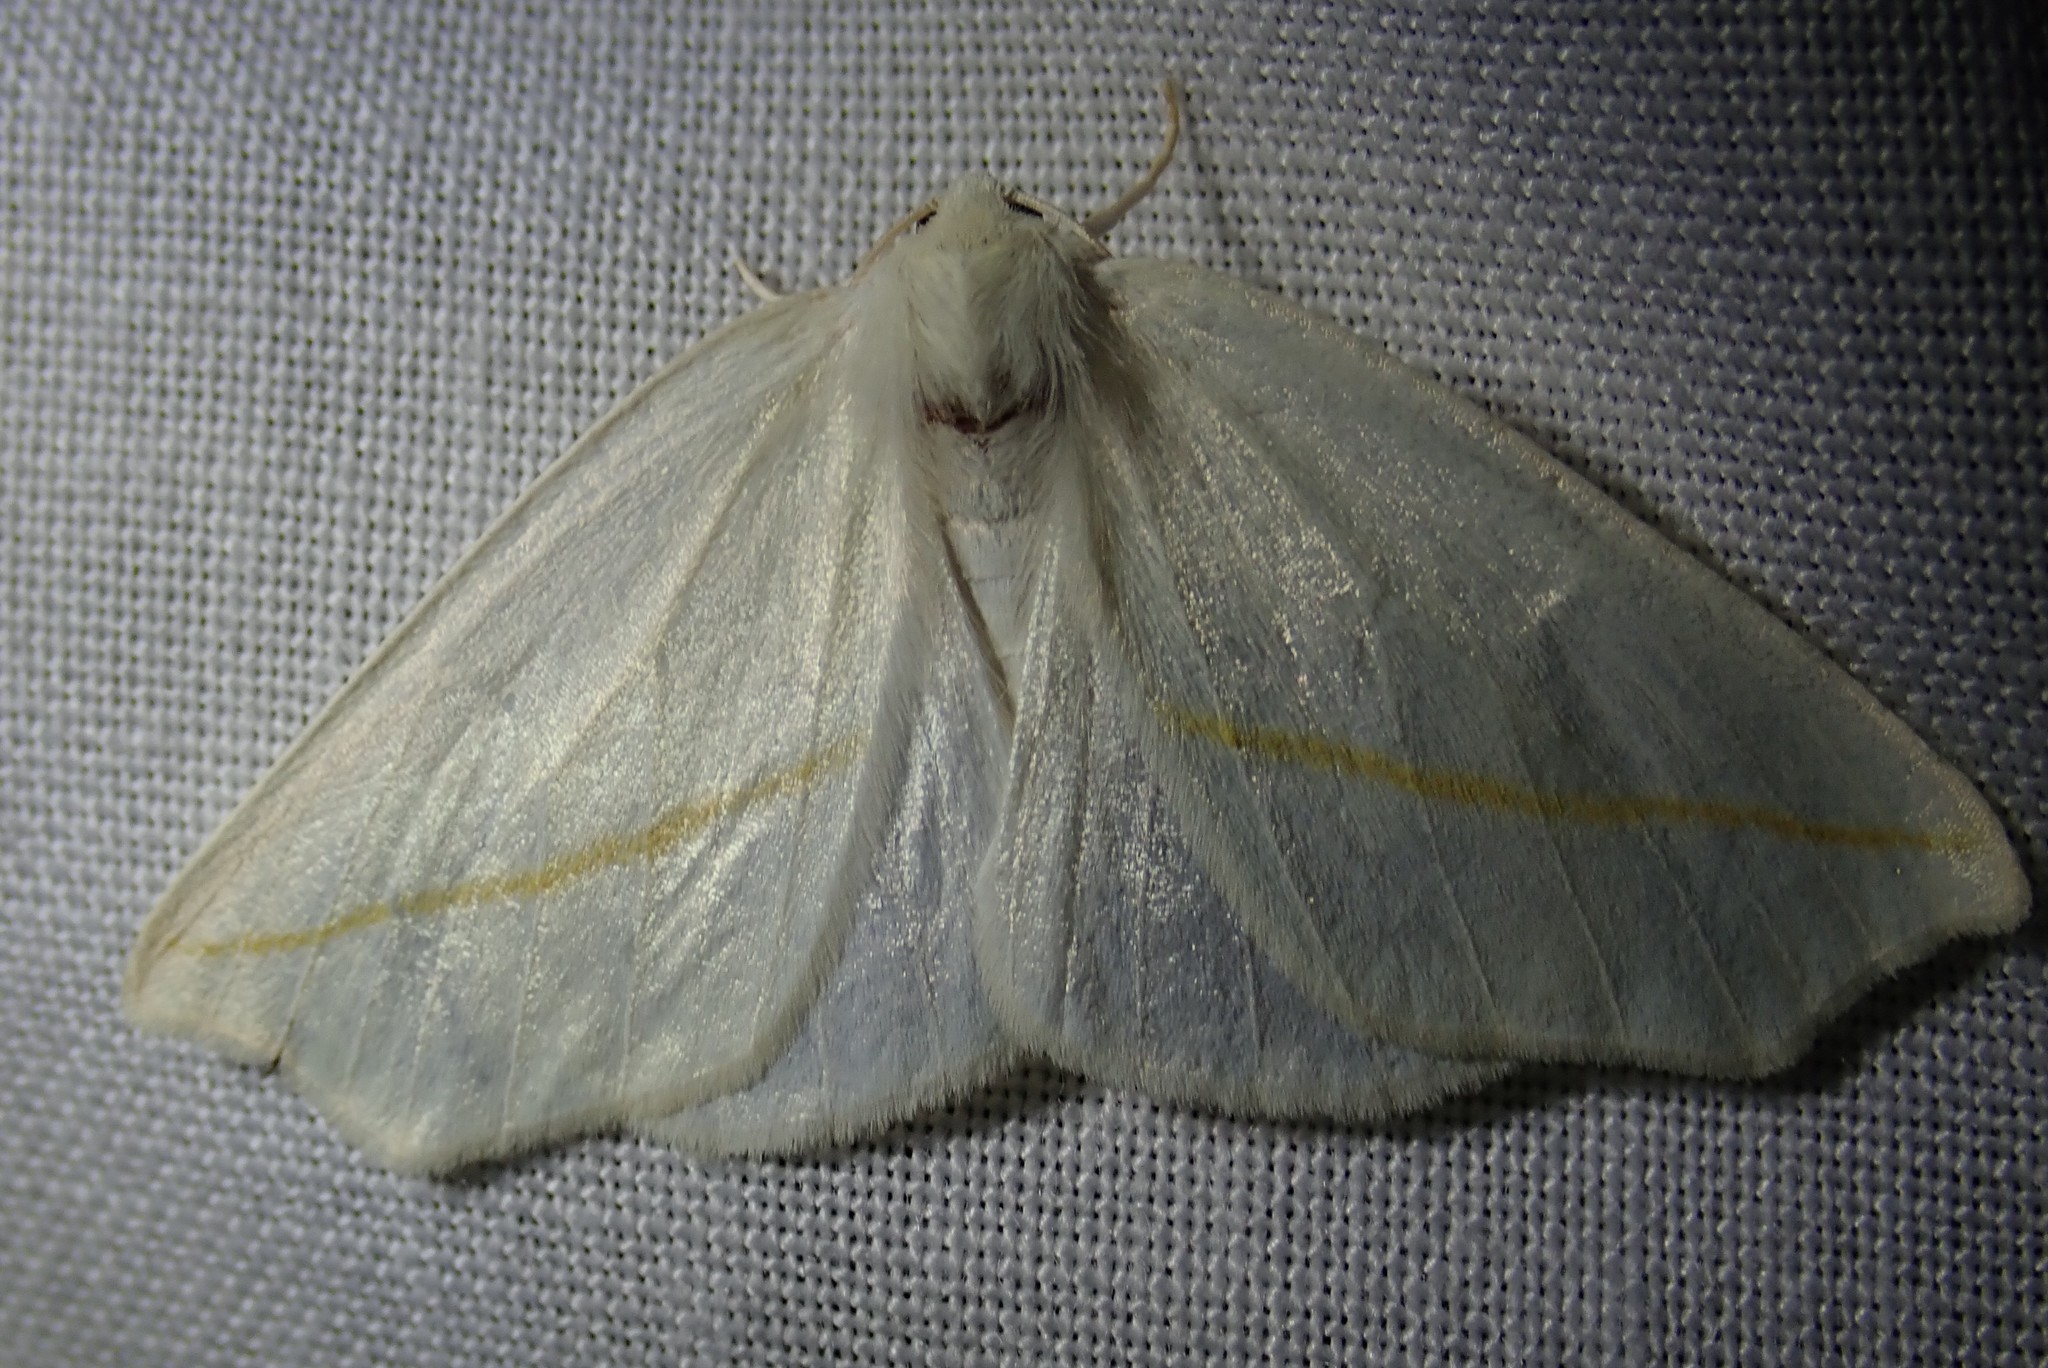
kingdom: Animalia
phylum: Arthropoda
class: Insecta
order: Lepidoptera
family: Geometridae
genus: Tetracis
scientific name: Tetracis cachexiata
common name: White slant-line
